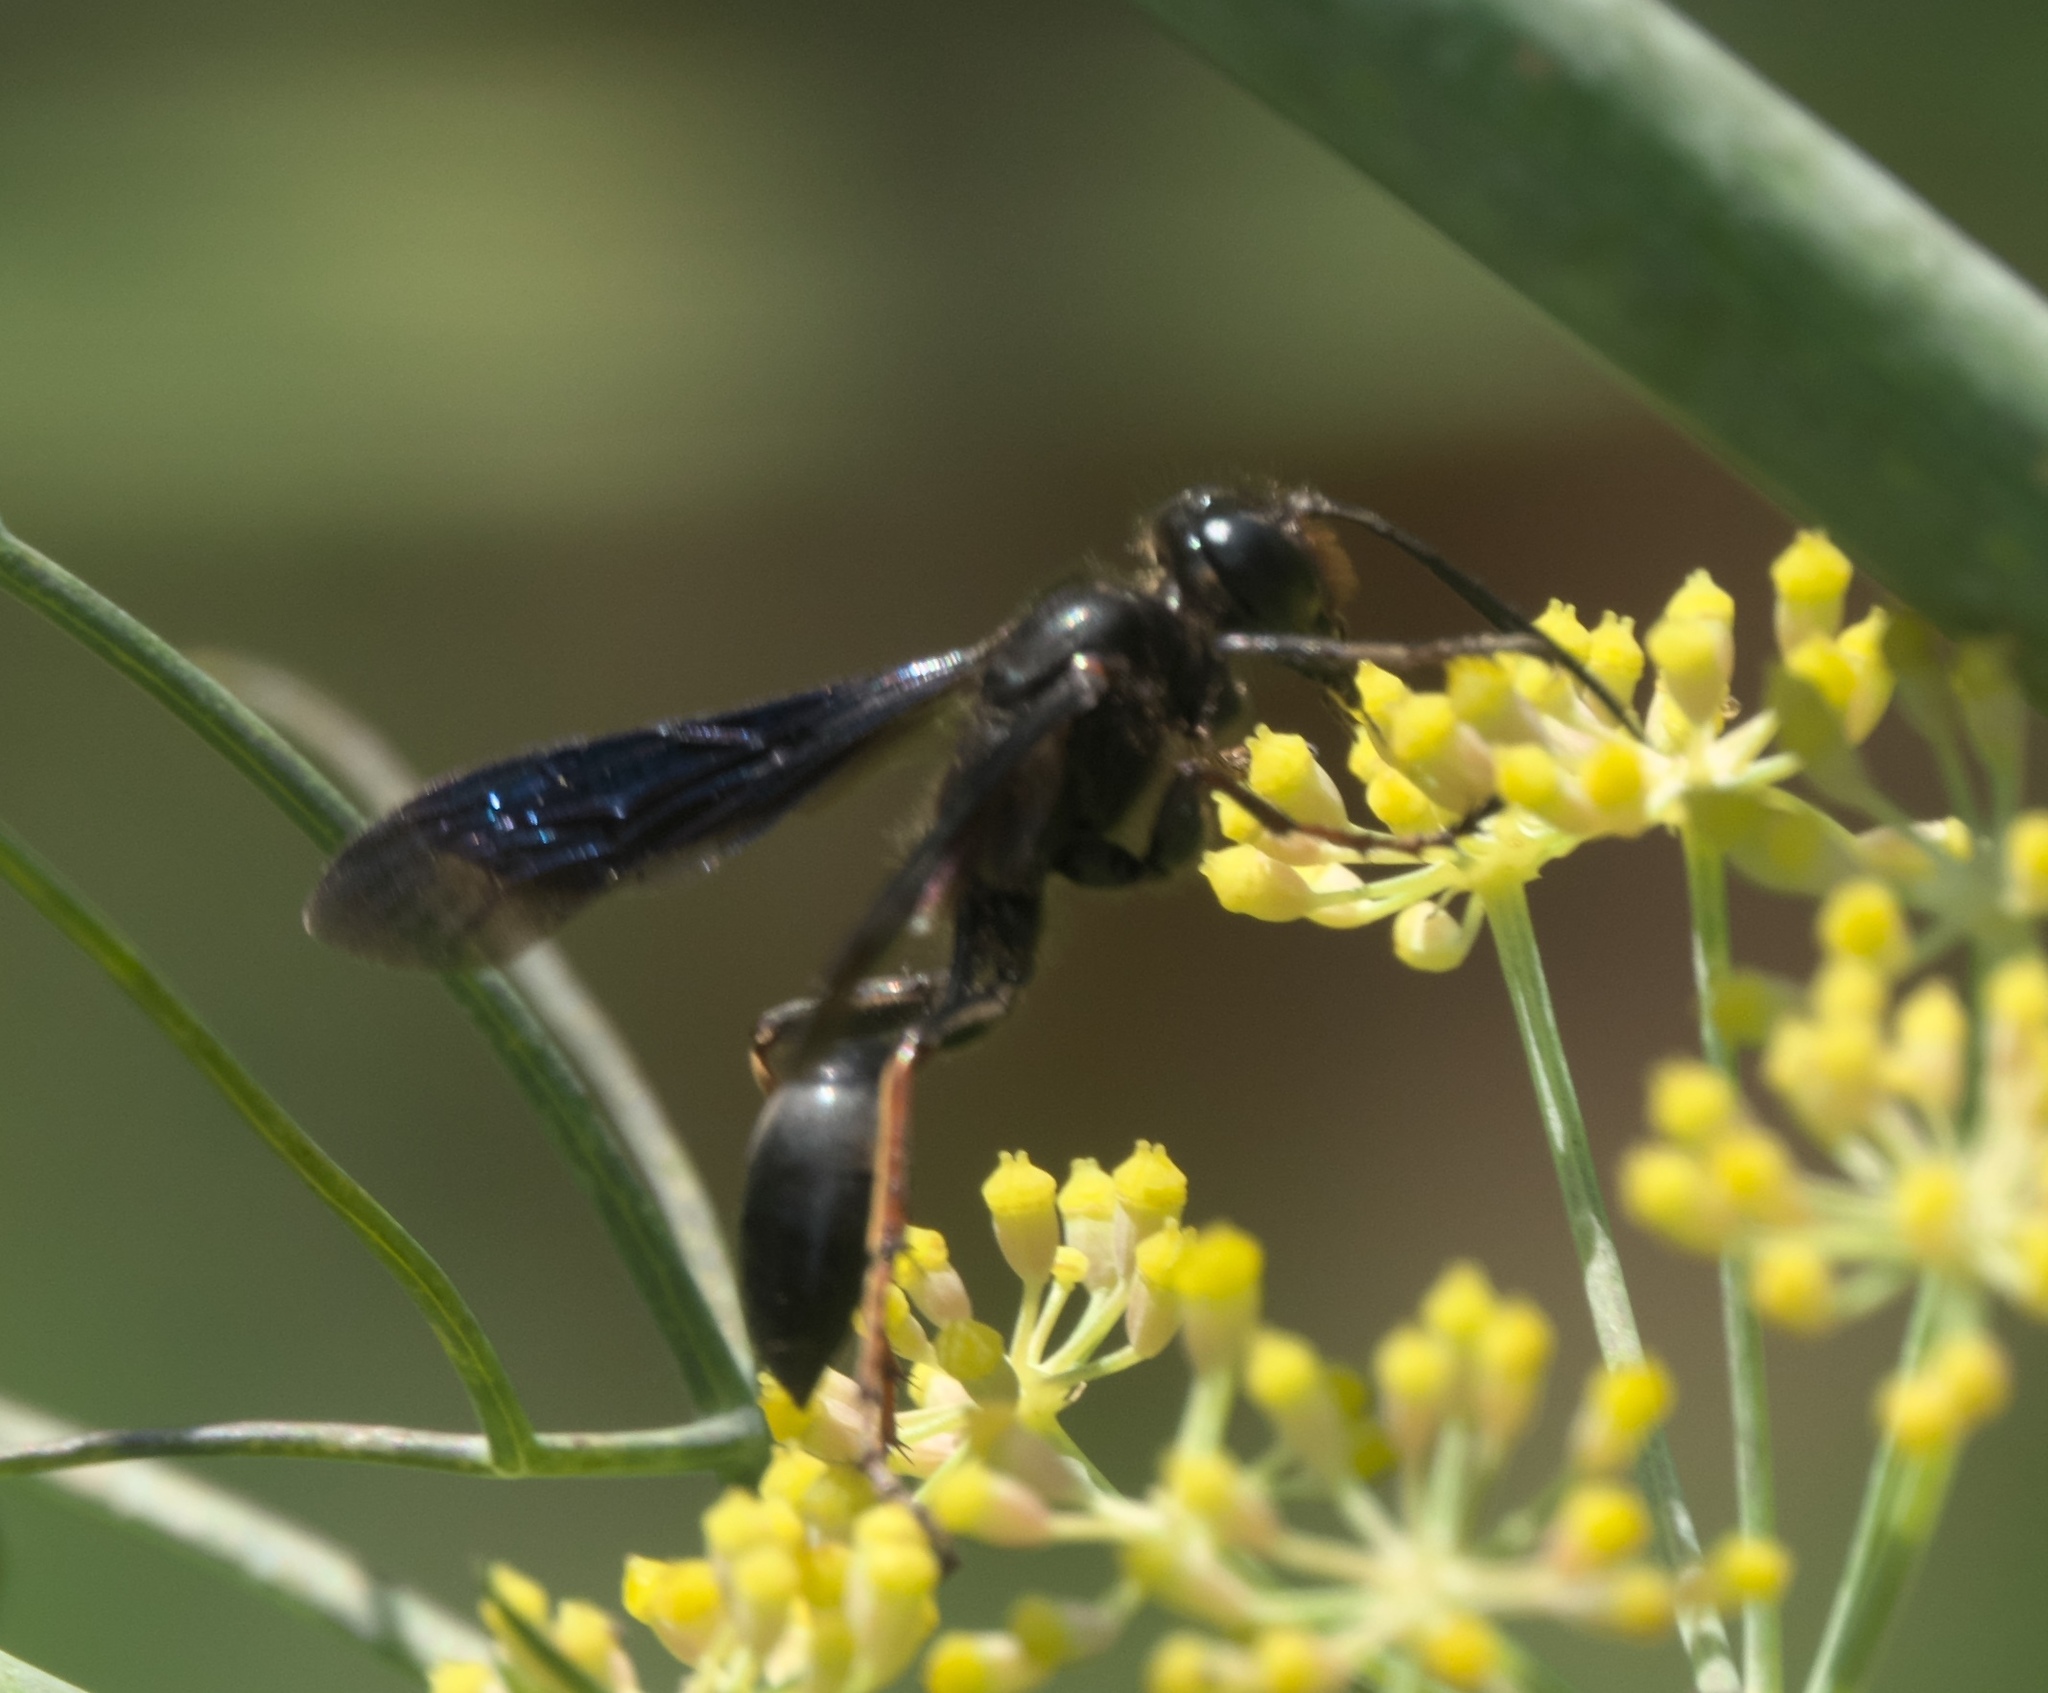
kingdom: Animalia
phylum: Arthropoda
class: Insecta
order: Hymenoptera
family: Sphecidae
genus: Isodontia
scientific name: Isodontia auripes
